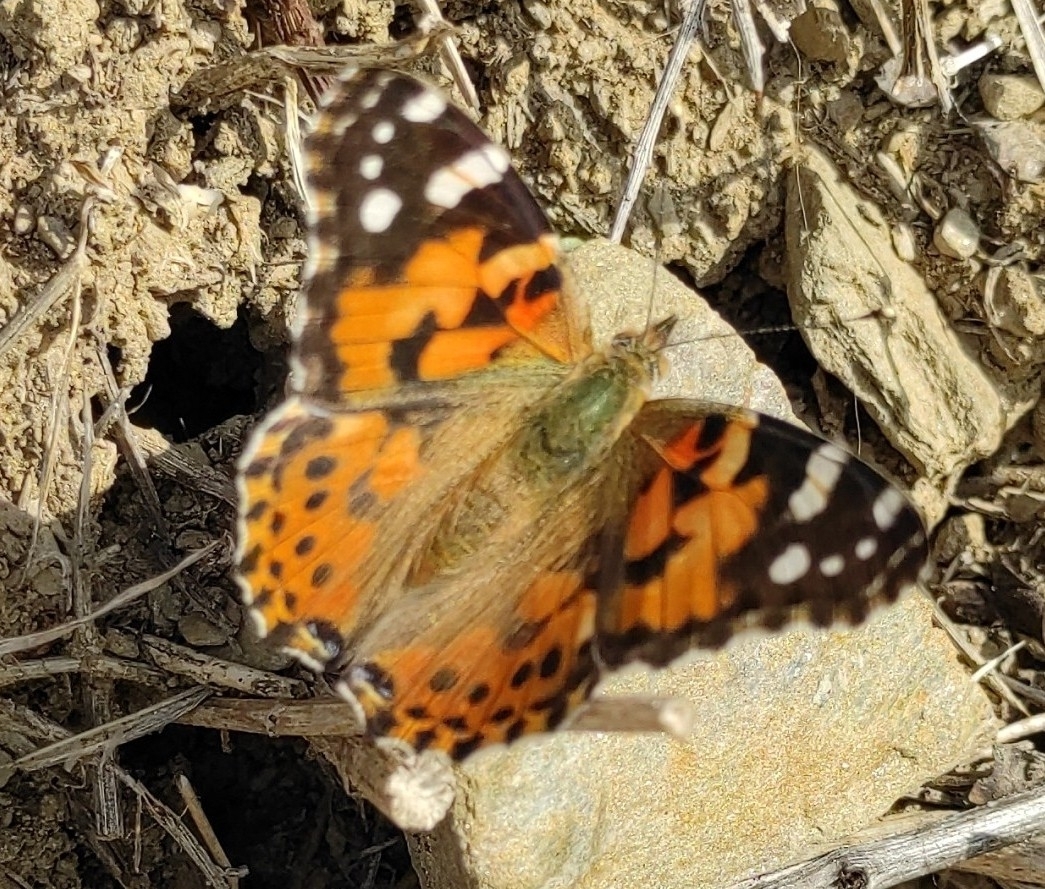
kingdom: Animalia
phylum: Arthropoda
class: Insecta
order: Lepidoptera
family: Nymphalidae
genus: Vanessa
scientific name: Vanessa cardui
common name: Painted lady
